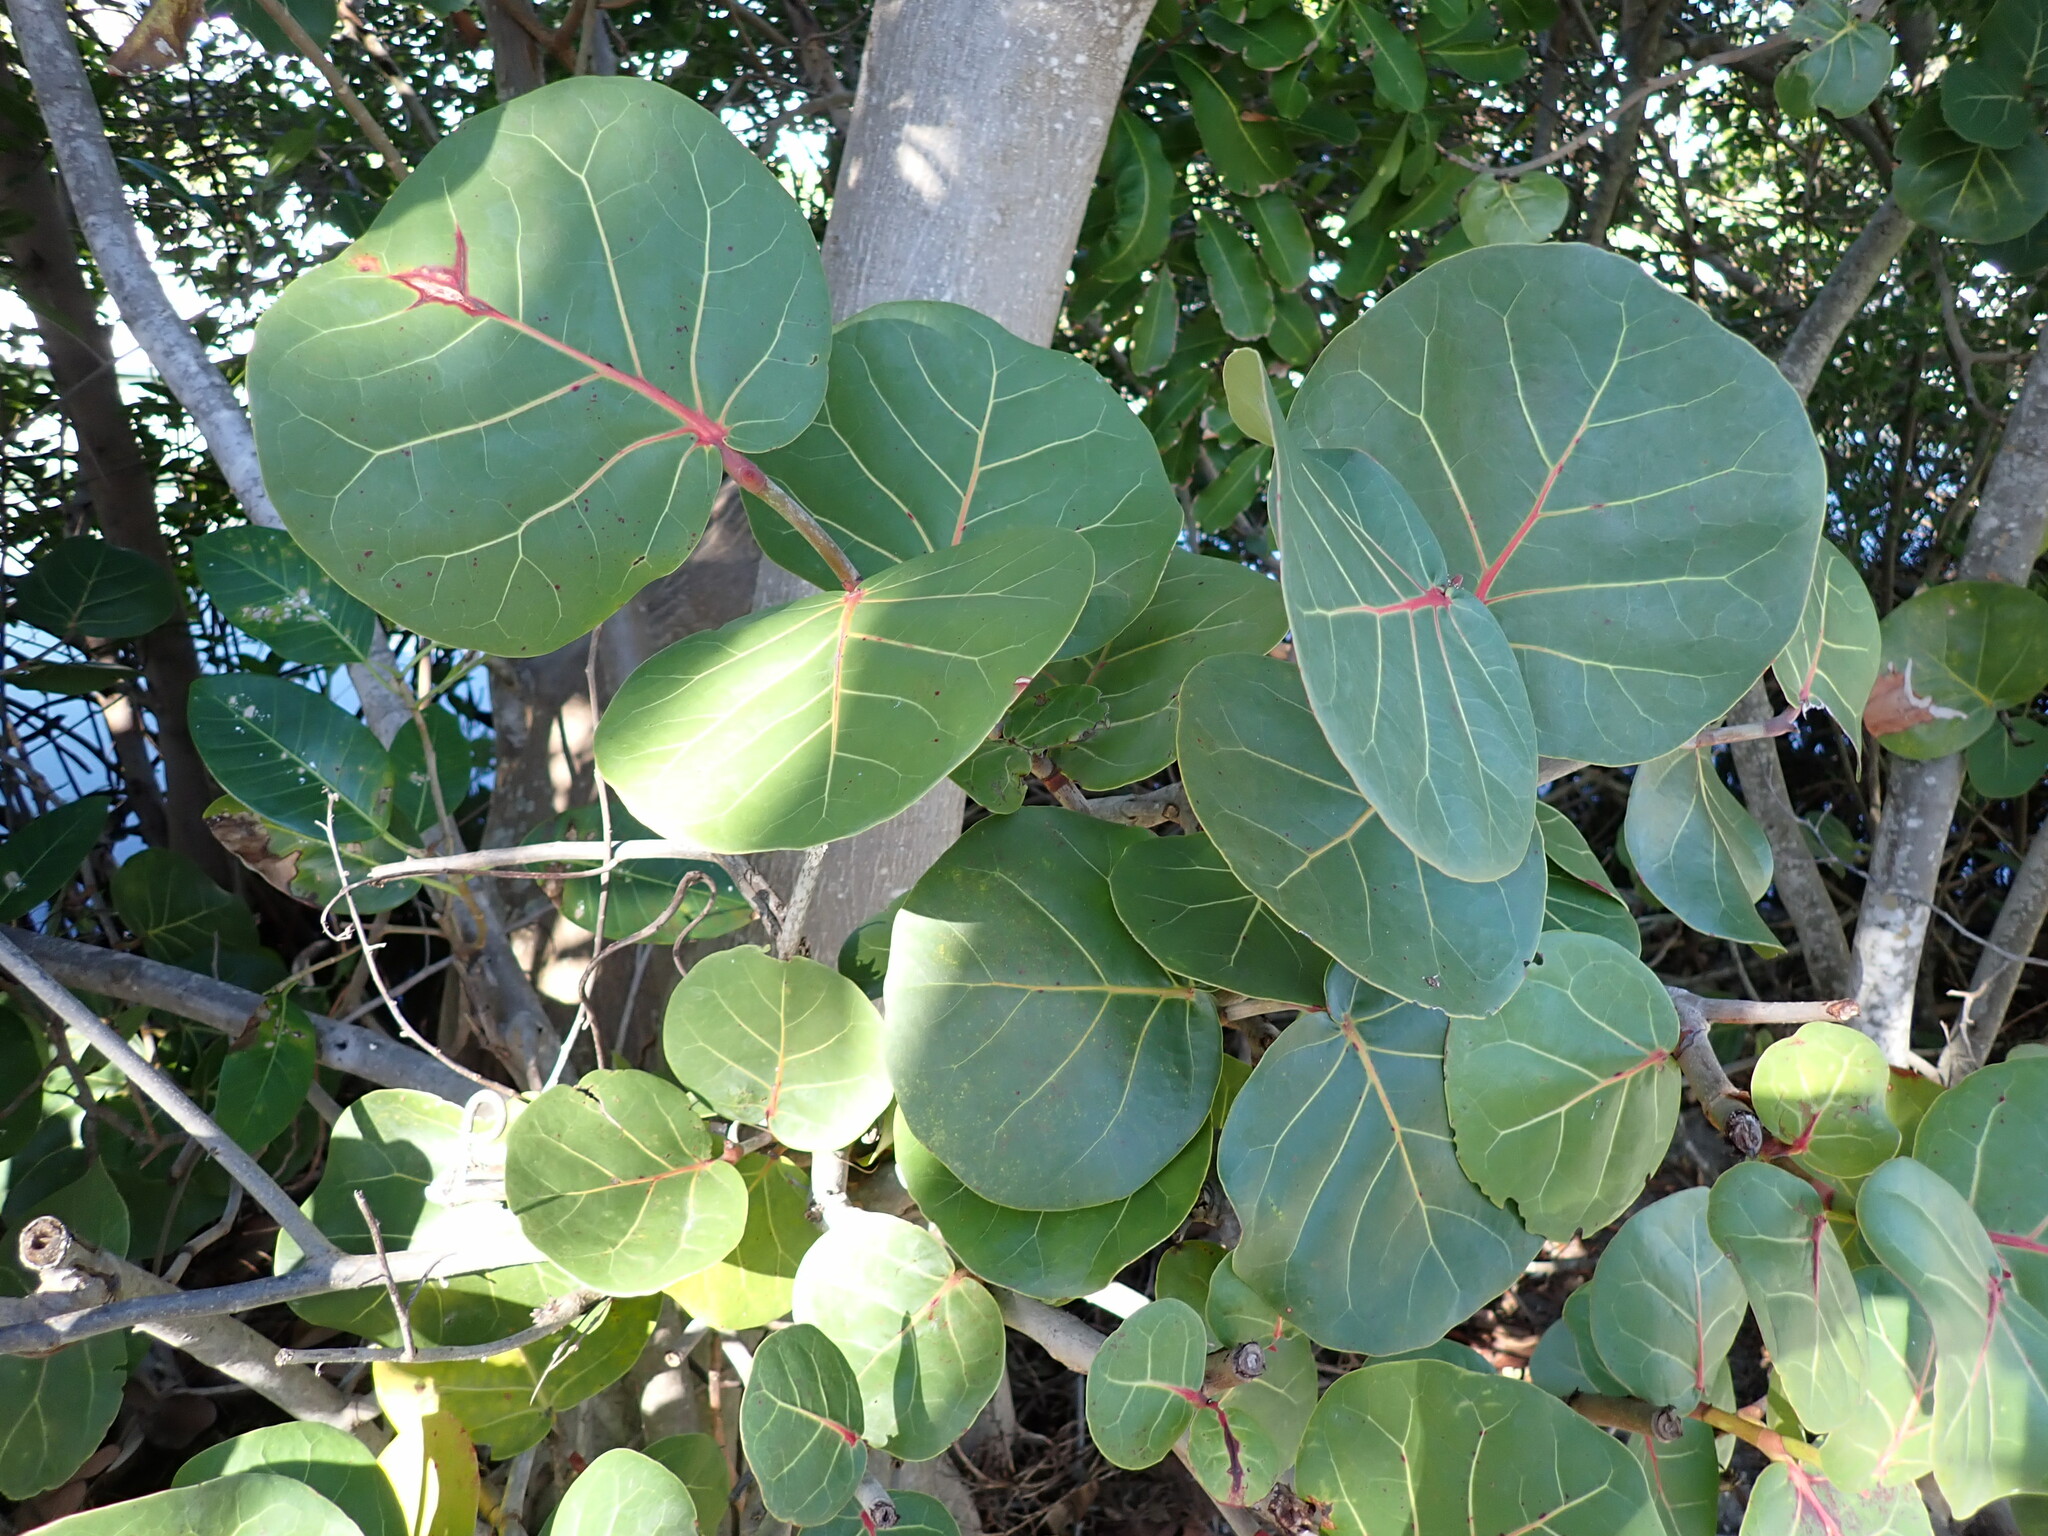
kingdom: Plantae
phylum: Tracheophyta
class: Magnoliopsida
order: Caryophyllales
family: Polygonaceae
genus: Coccoloba
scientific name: Coccoloba uvifera
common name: Seagrape
